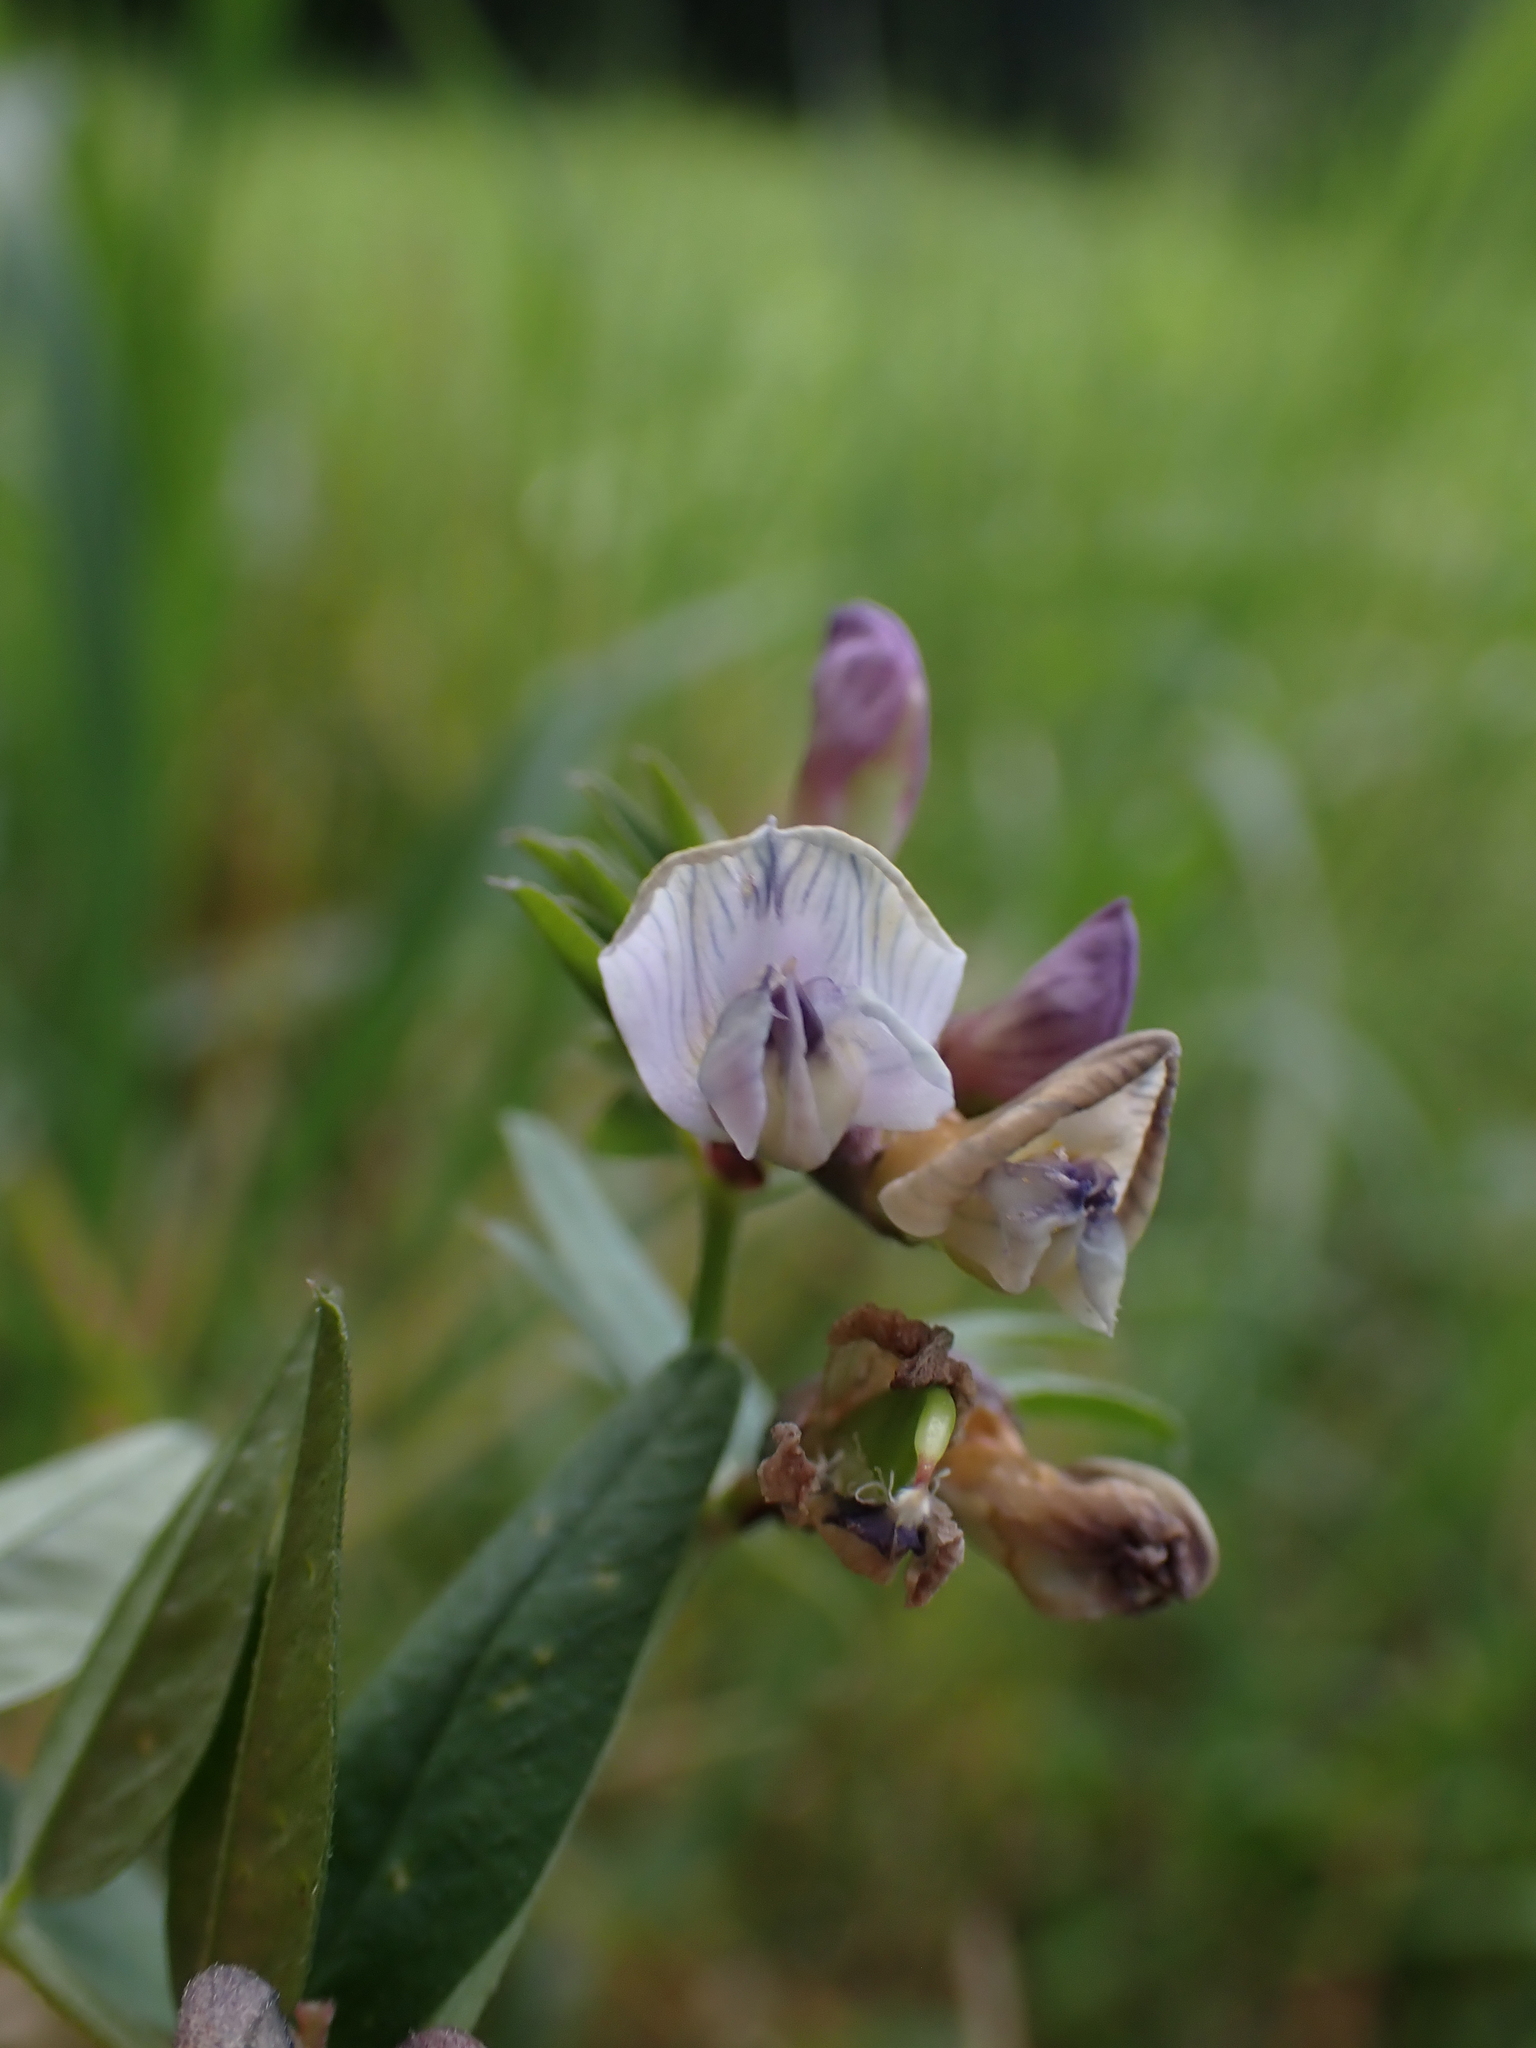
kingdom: Plantae
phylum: Tracheophyta
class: Magnoliopsida
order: Fabales
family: Fabaceae
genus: Vicia
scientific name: Vicia sepium
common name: Bush vetch
